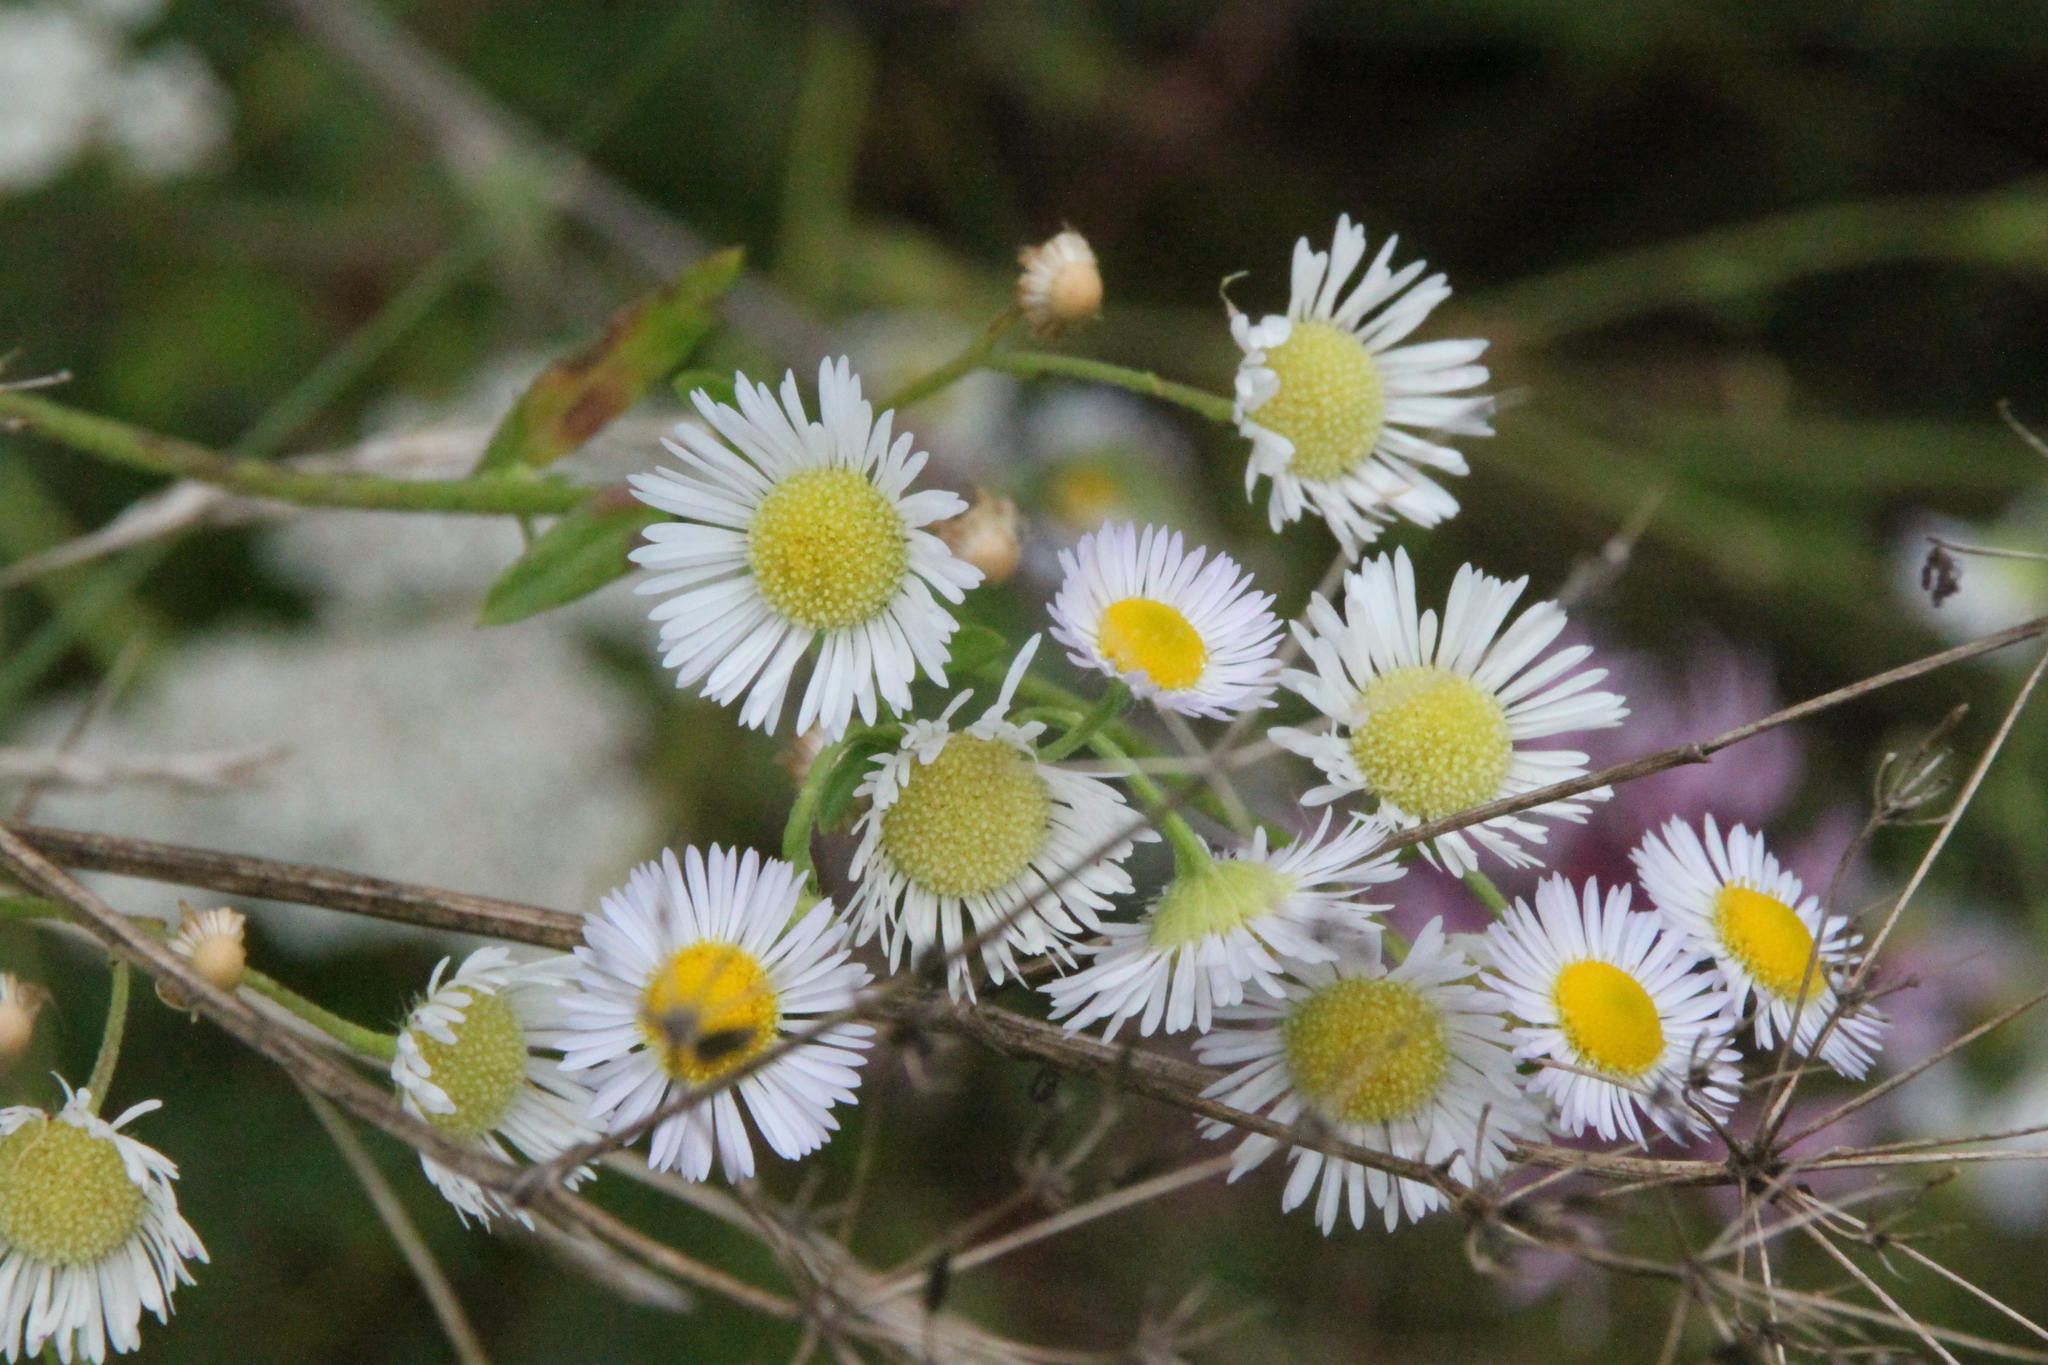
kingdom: Plantae
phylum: Tracheophyta
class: Magnoliopsida
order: Asterales
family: Asteraceae
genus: Erigeron
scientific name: Erigeron annuus
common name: Tall fleabane
